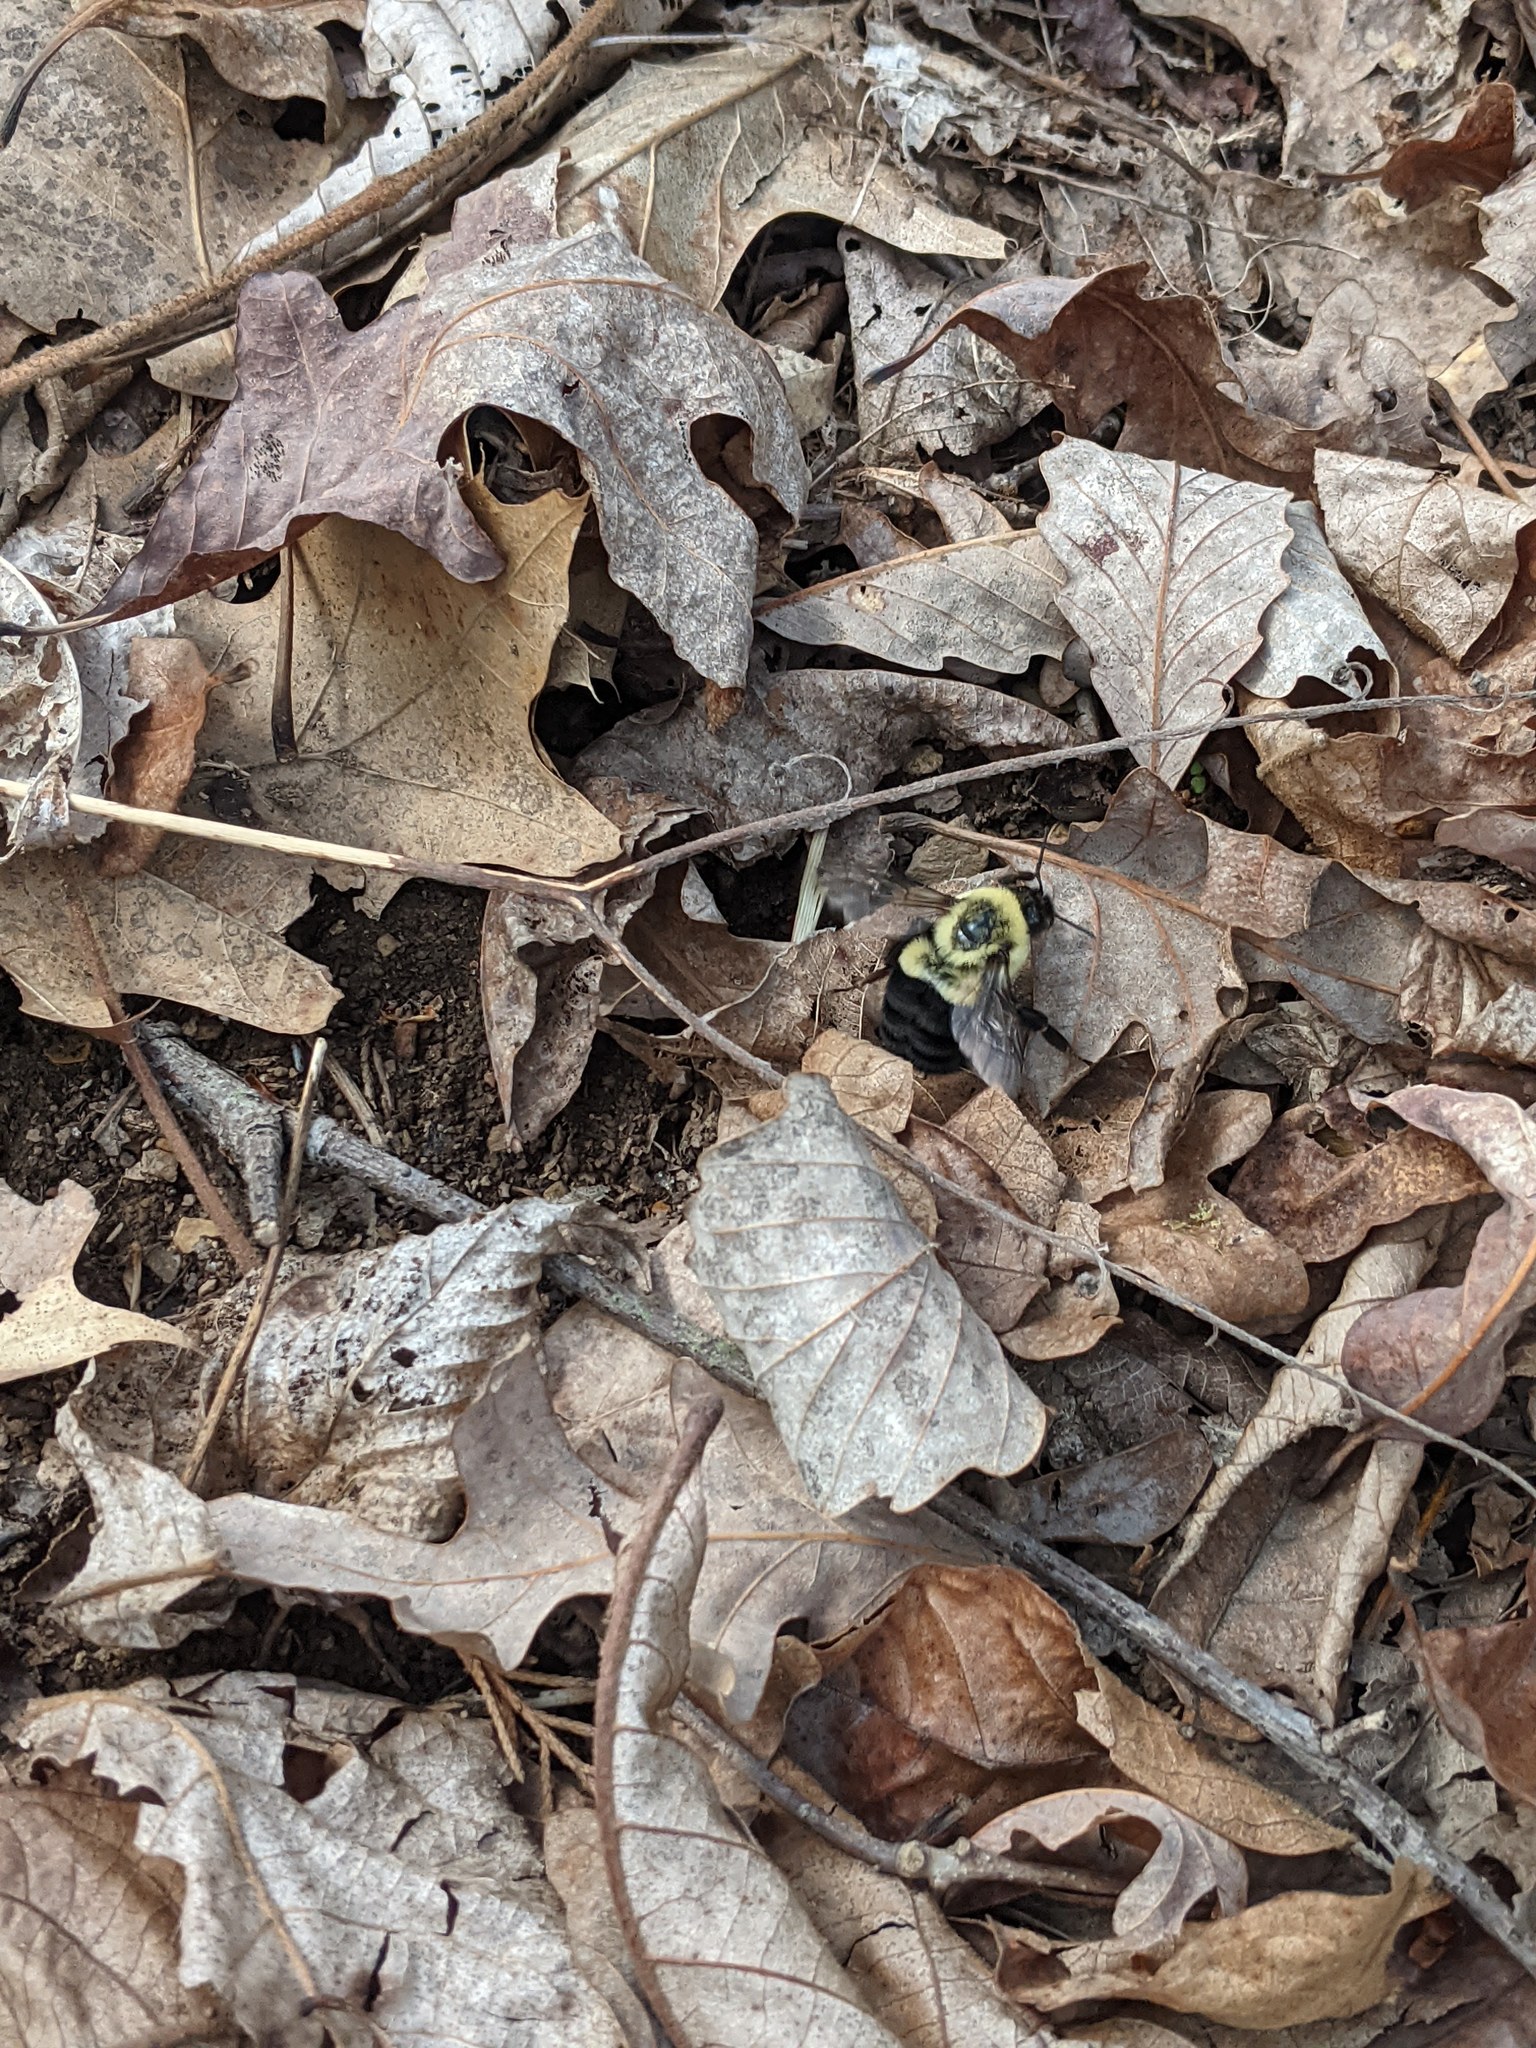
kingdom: Animalia
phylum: Arthropoda
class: Insecta
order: Hymenoptera
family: Apidae
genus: Bombus
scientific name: Bombus impatiens
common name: Common eastern bumble bee
